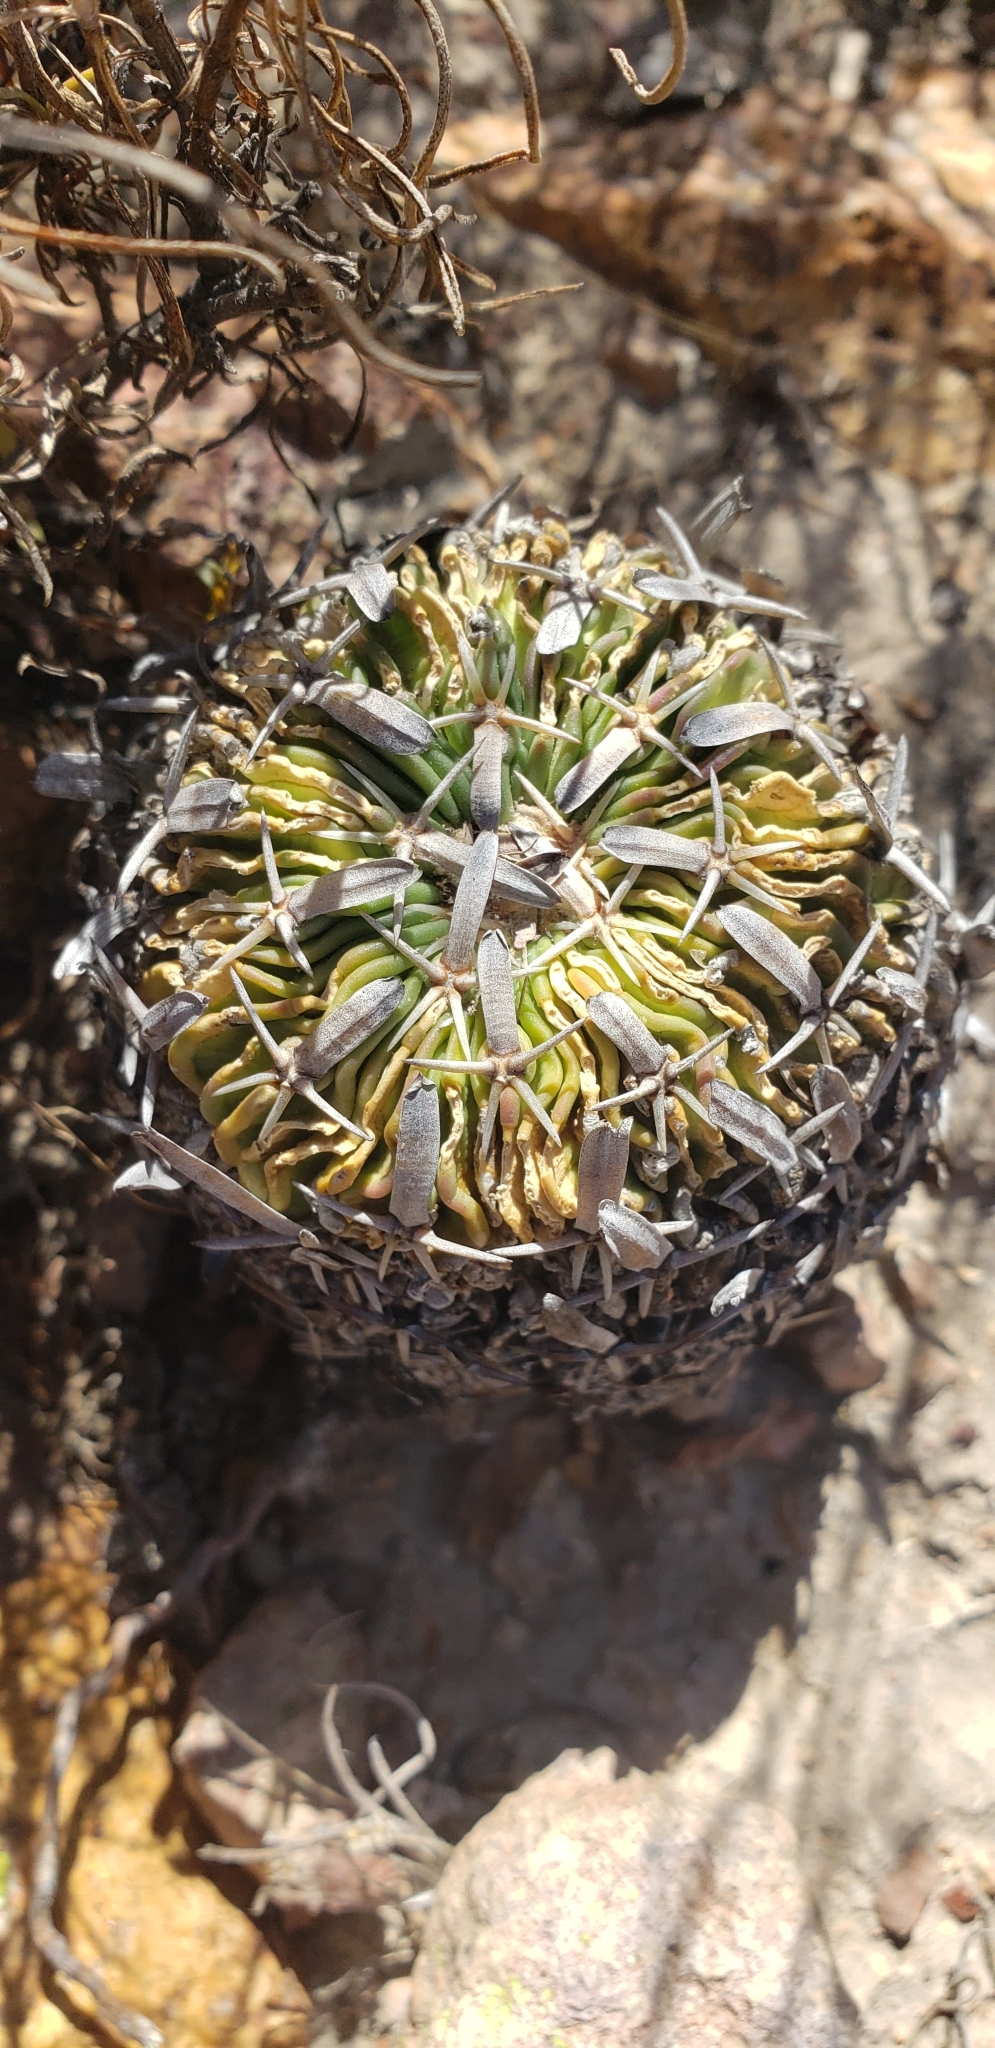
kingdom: Plantae
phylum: Tracheophyta
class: Magnoliopsida
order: Caryophyllales
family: Cactaceae
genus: Stenocactus
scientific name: Stenocactus phyllacanthus
